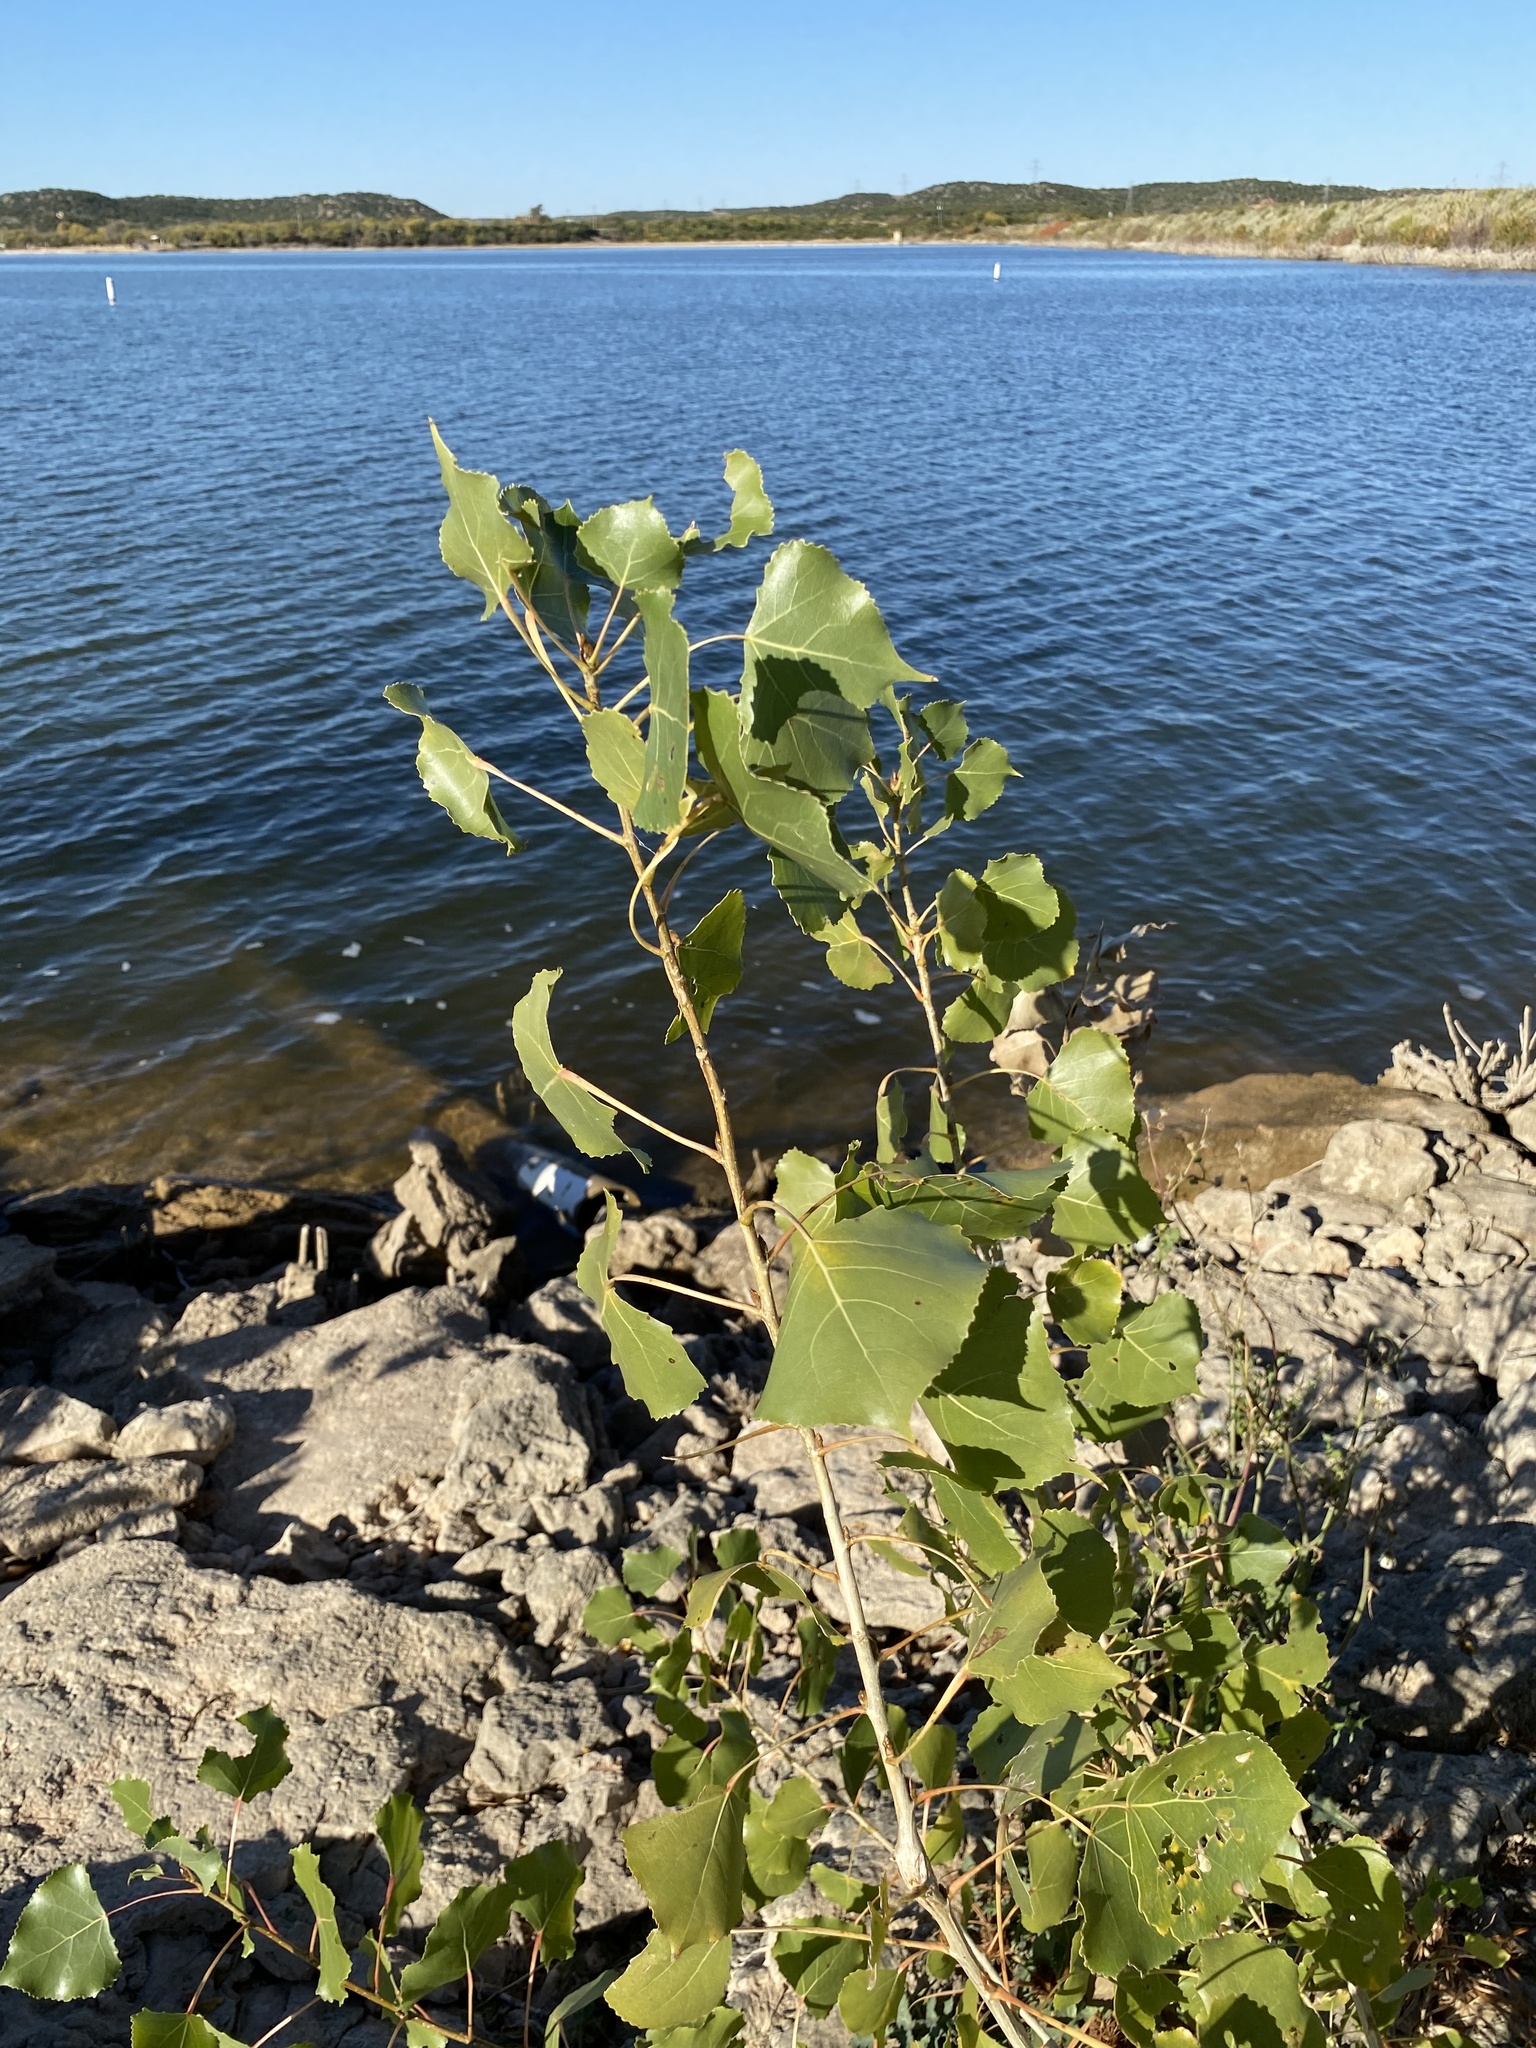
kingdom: Plantae
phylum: Tracheophyta
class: Magnoliopsida
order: Malpighiales
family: Salicaceae
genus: Populus
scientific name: Populus deltoides
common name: Eastern cottonwood
